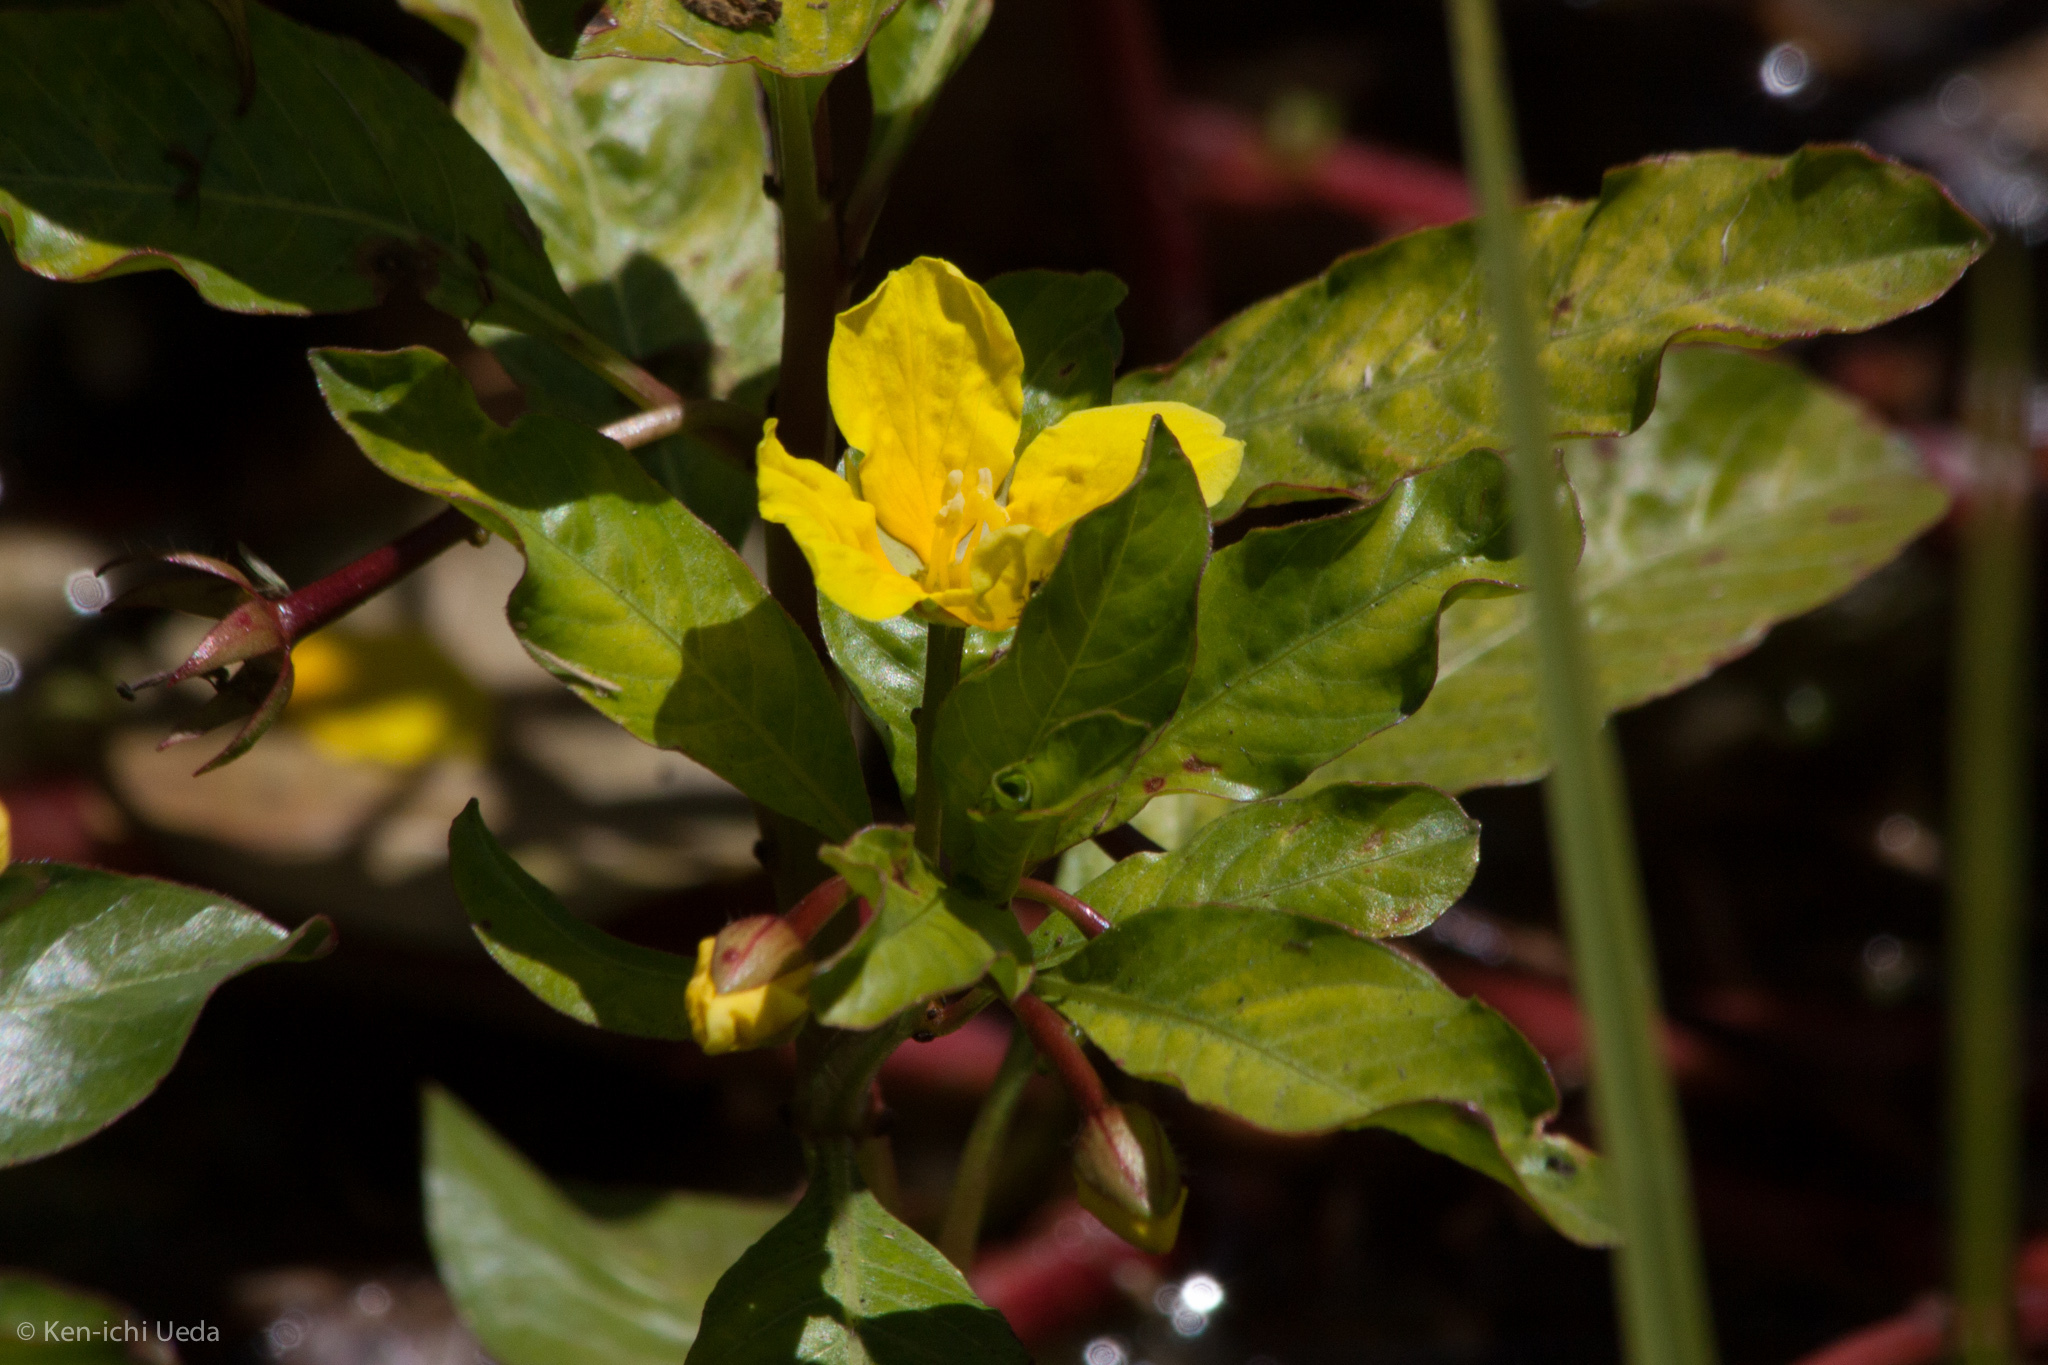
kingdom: Plantae
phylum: Tracheophyta
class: Magnoliopsida
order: Myrtales
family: Onagraceae
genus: Ludwigia
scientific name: Ludwigia peploides
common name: Floating primrose-willow
